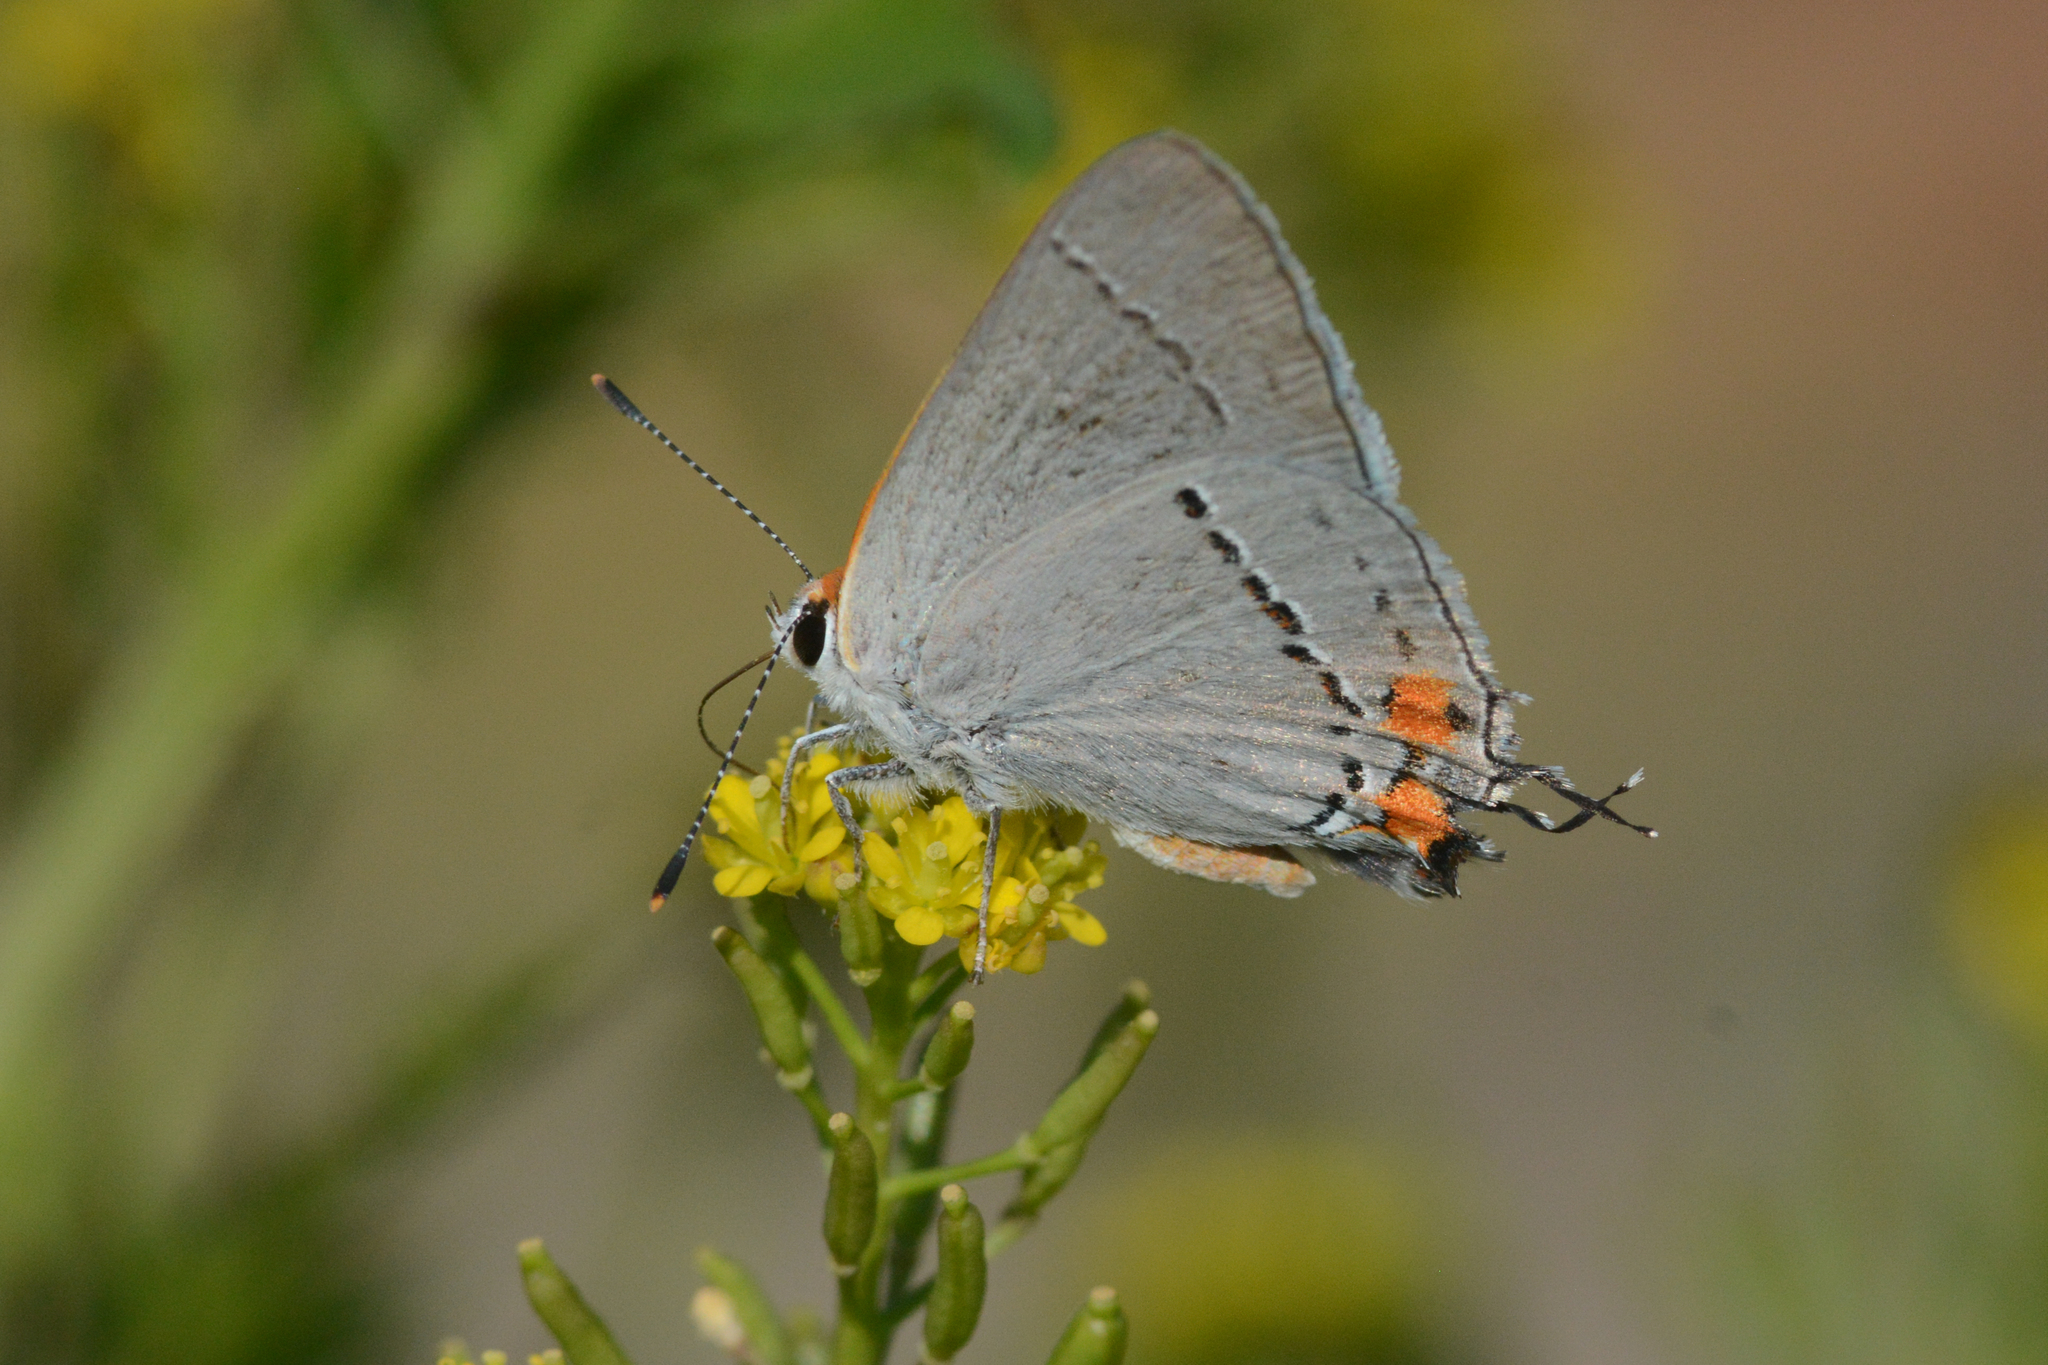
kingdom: Animalia
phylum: Arthropoda
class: Insecta
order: Lepidoptera
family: Lycaenidae
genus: Strymon
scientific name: Strymon melinus
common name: Gray hairstreak
